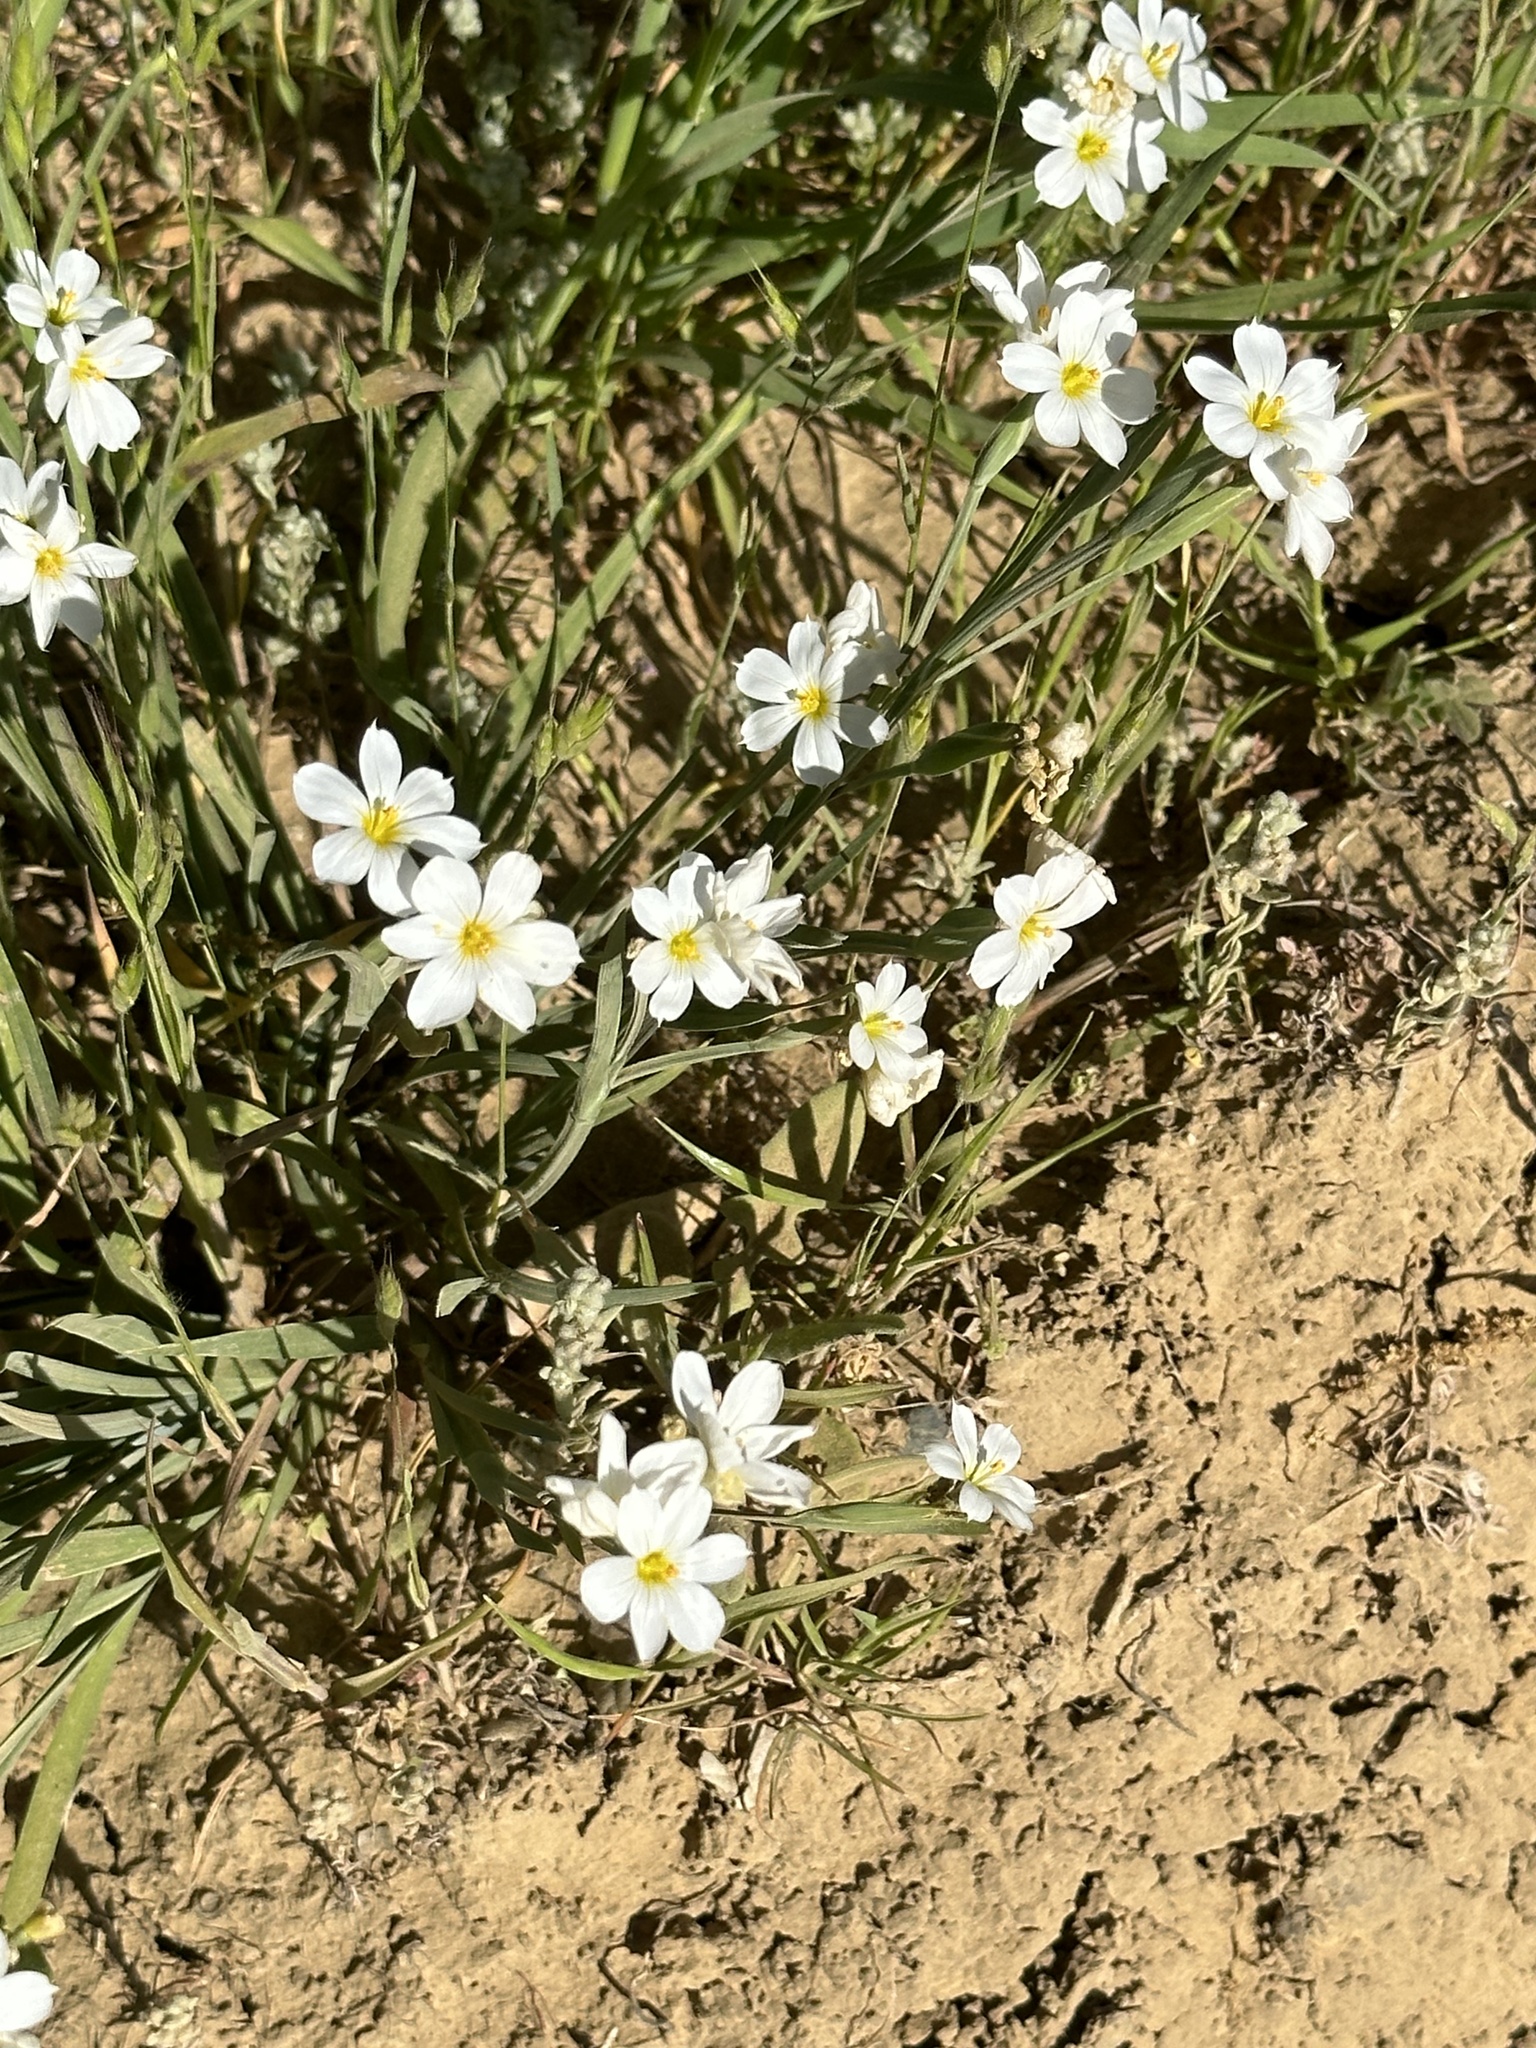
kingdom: Plantae
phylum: Tracheophyta
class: Liliopsida
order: Asparagales
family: Iridaceae
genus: Sisyrinchium
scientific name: Sisyrinchium bellum
